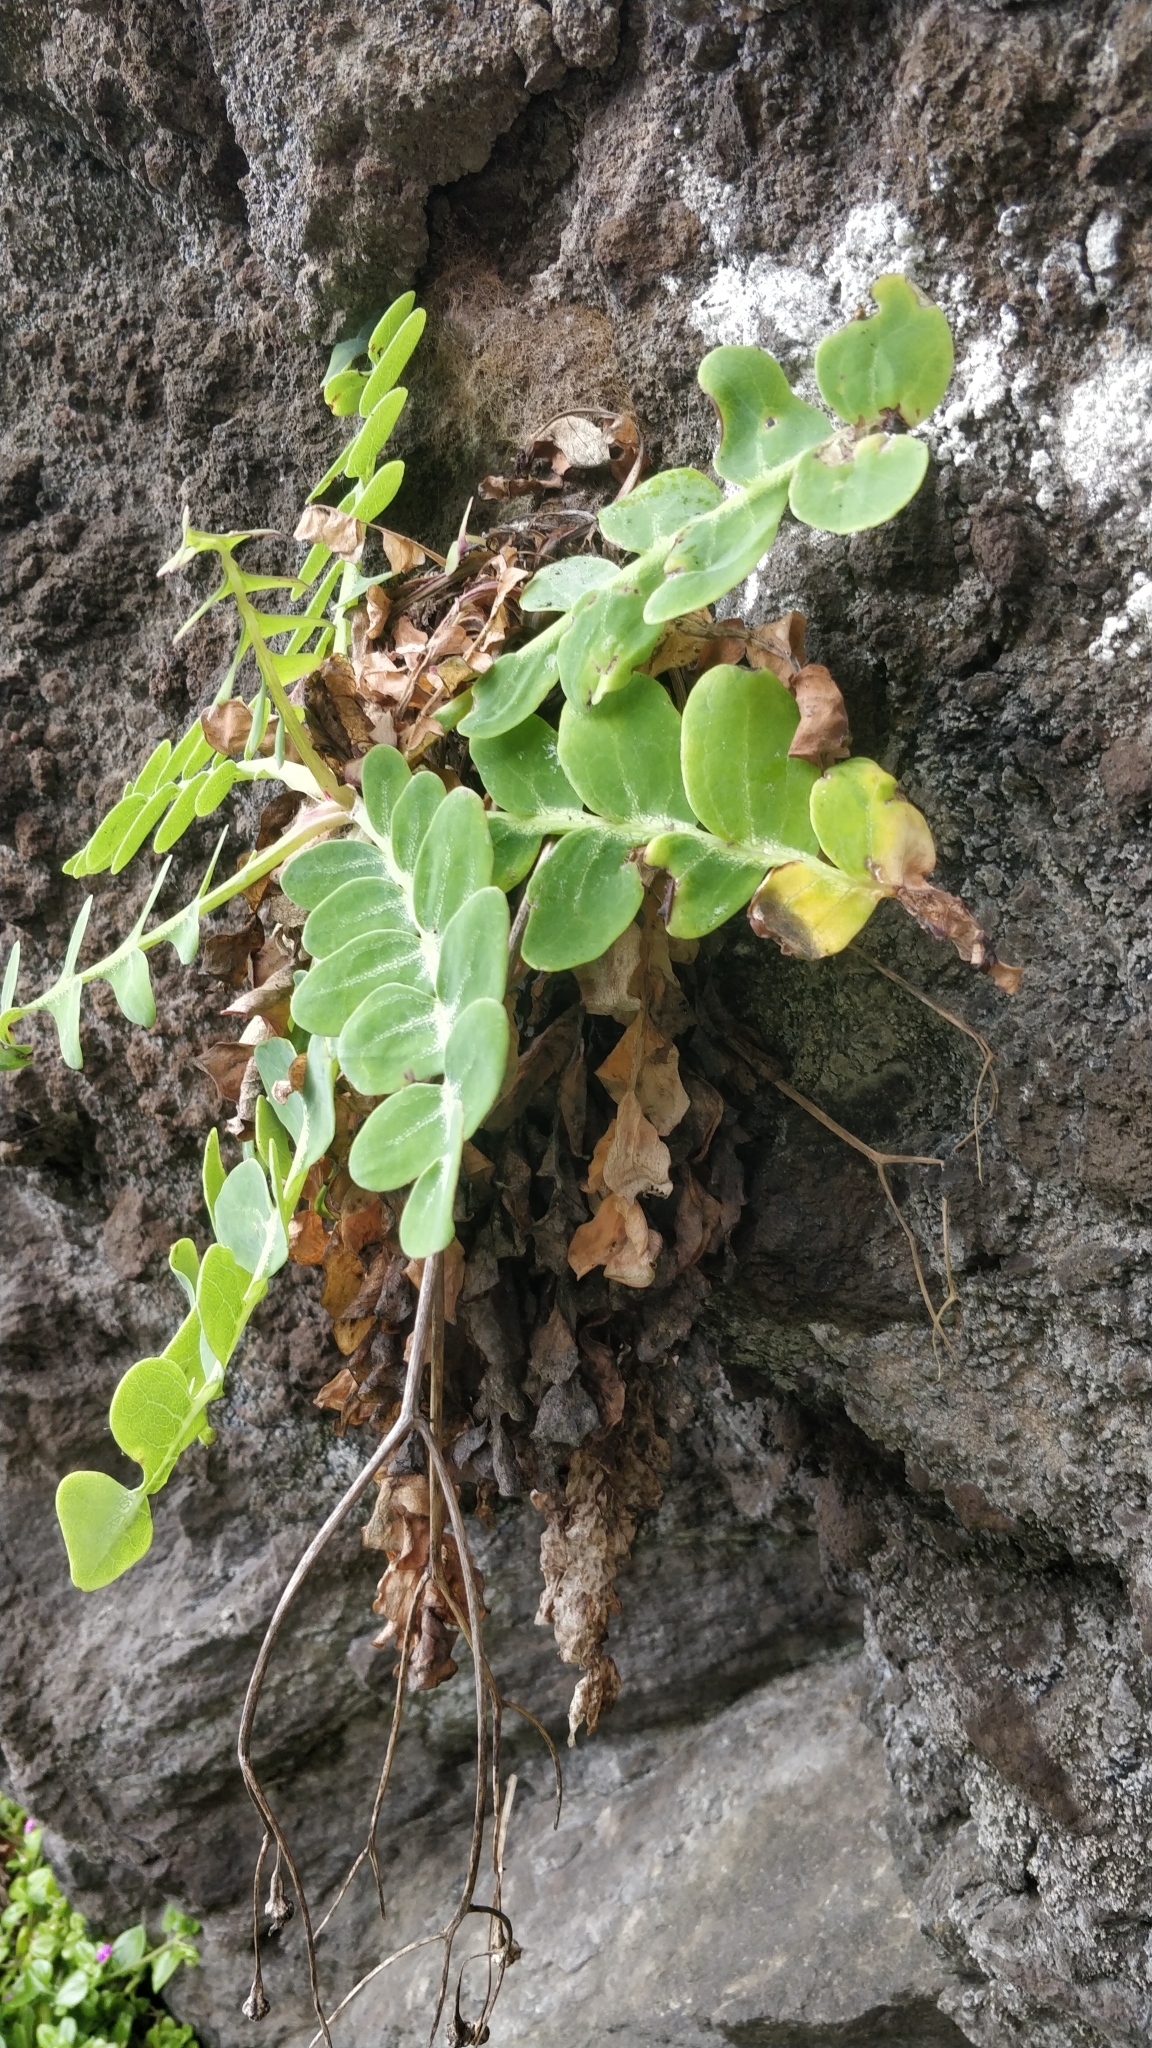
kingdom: Plantae
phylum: Tracheophyta
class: Magnoliopsida
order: Asterales
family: Asteraceae
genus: Sonchus
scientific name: Sonchus latifolius
